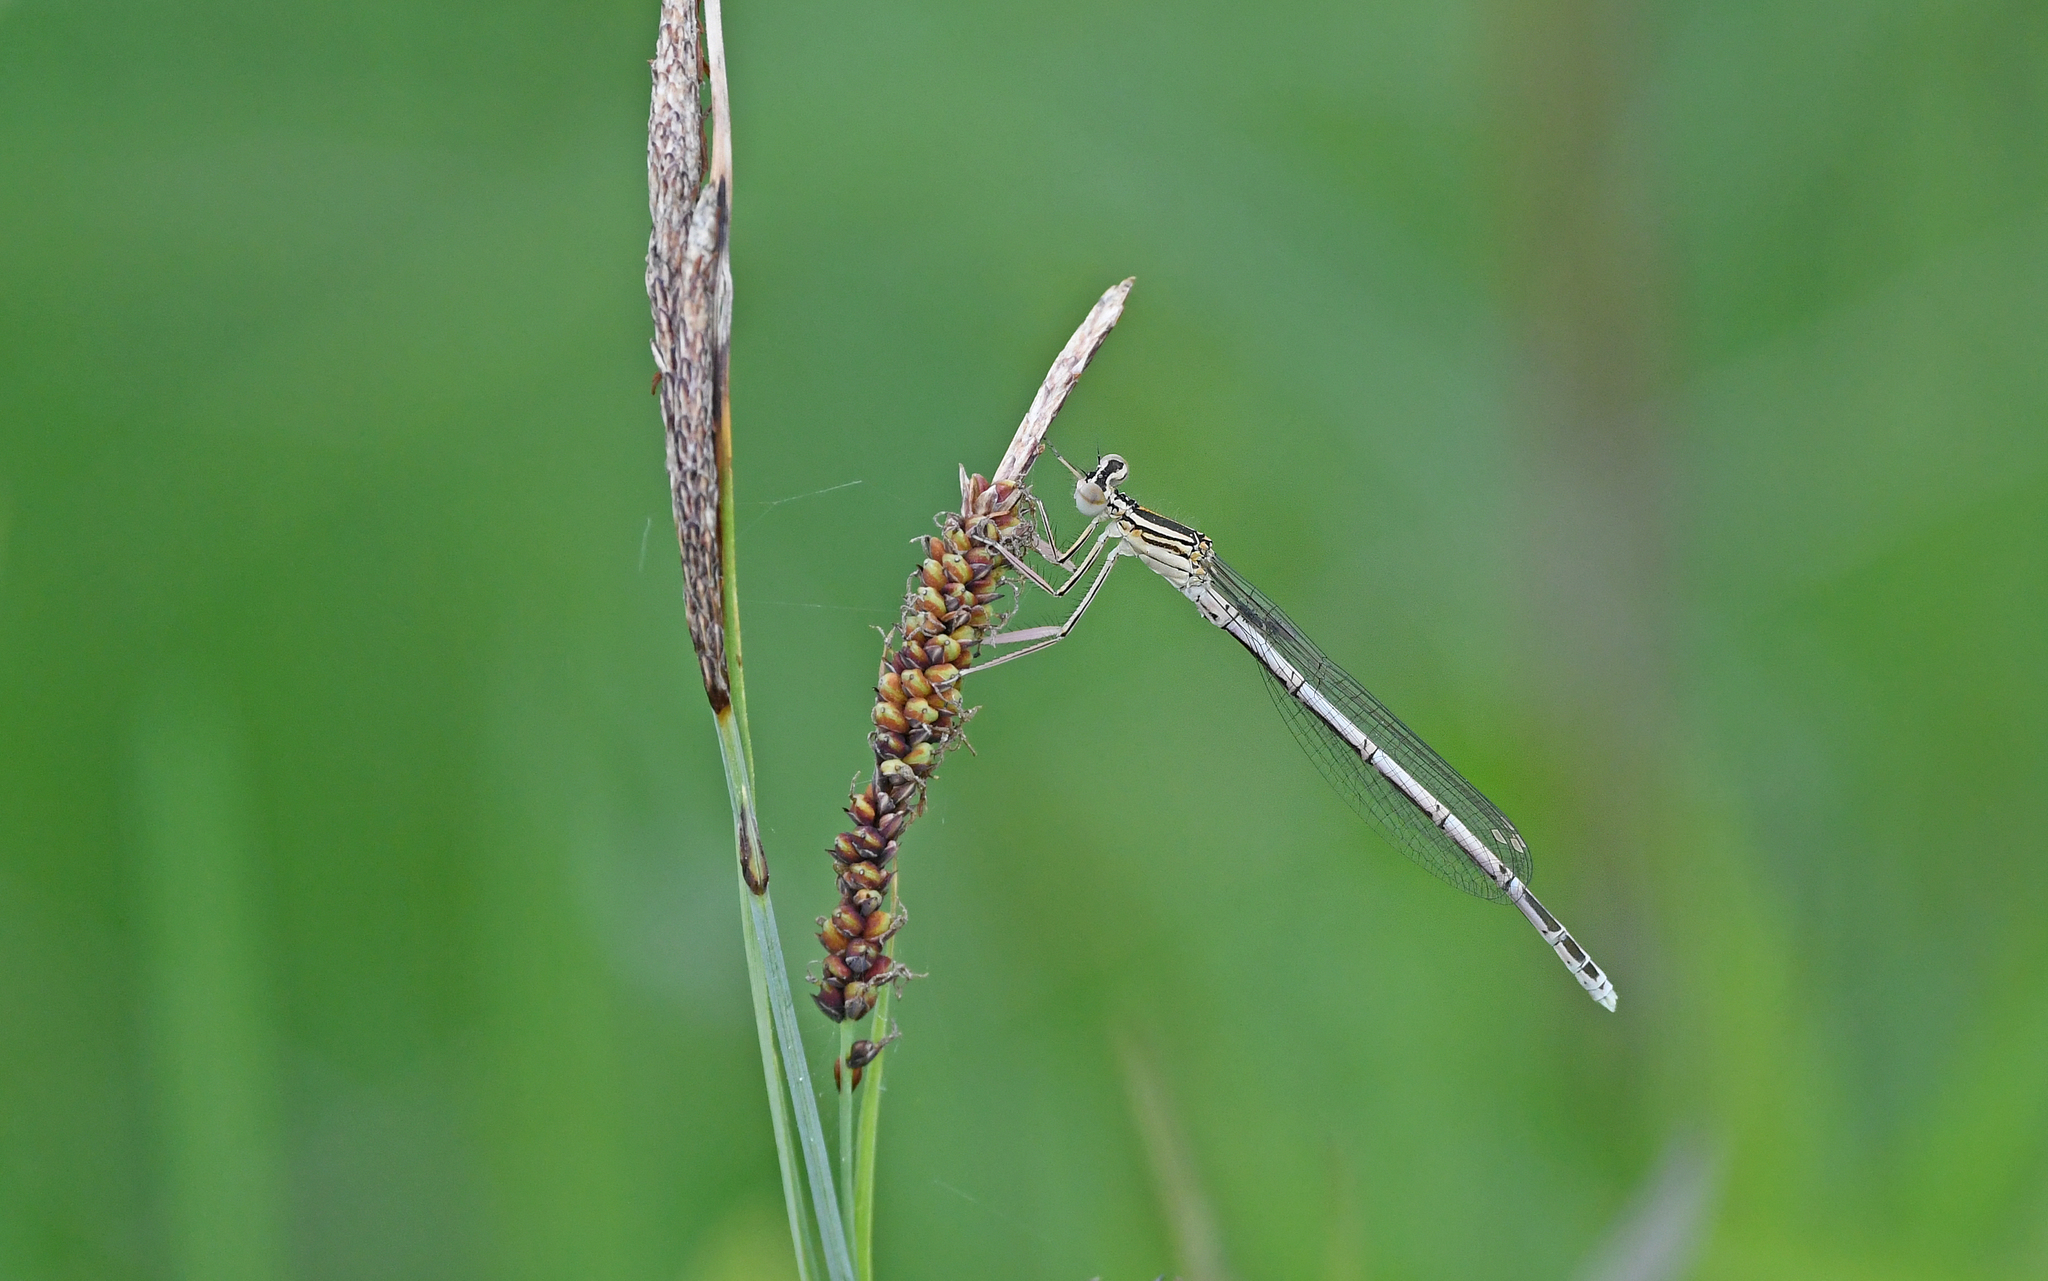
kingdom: Animalia
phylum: Arthropoda
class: Insecta
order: Odonata
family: Platycnemididae
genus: Platycnemis
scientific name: Platycnemis pennipes
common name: White-legged damselfly
